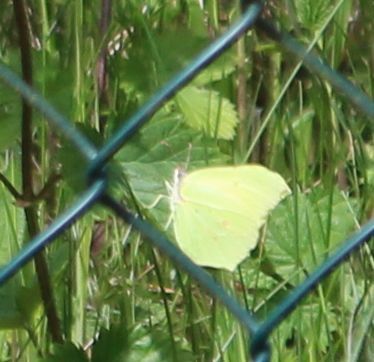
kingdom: Animalia
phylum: Arthropoda
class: Insecta
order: Lepidoptera
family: Pieridae
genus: Gonepteryx
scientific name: Gonepteryx rhamni
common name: Brimstone
